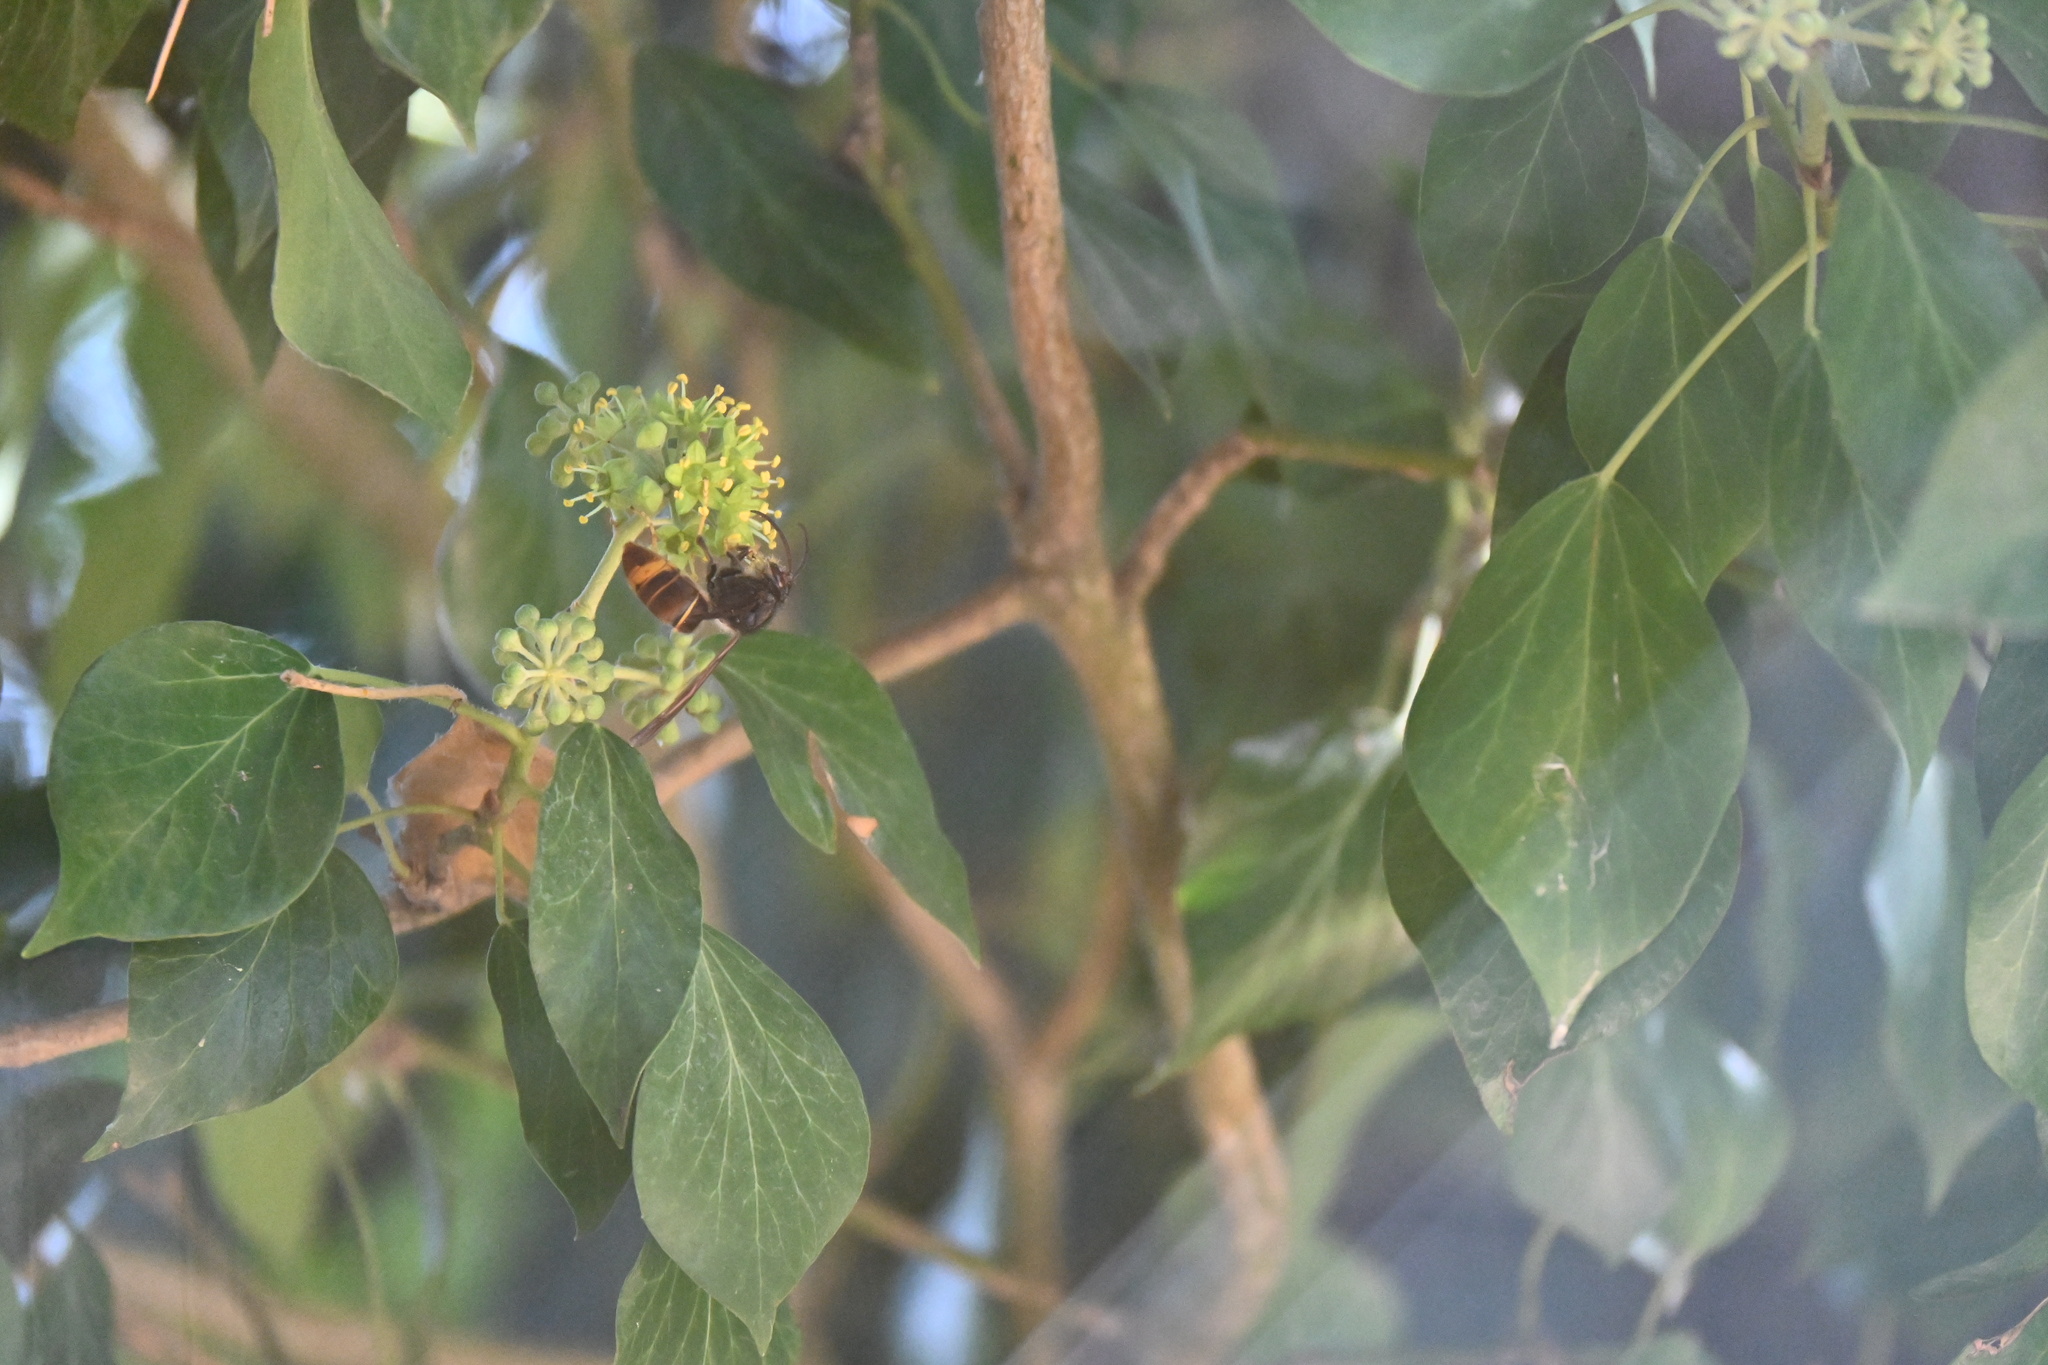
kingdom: Animalia
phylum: Arthropoda
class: Insecta
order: Hymenoptera
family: Vespidae
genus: Vespa
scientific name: Vespa velutina
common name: Asian hornet
